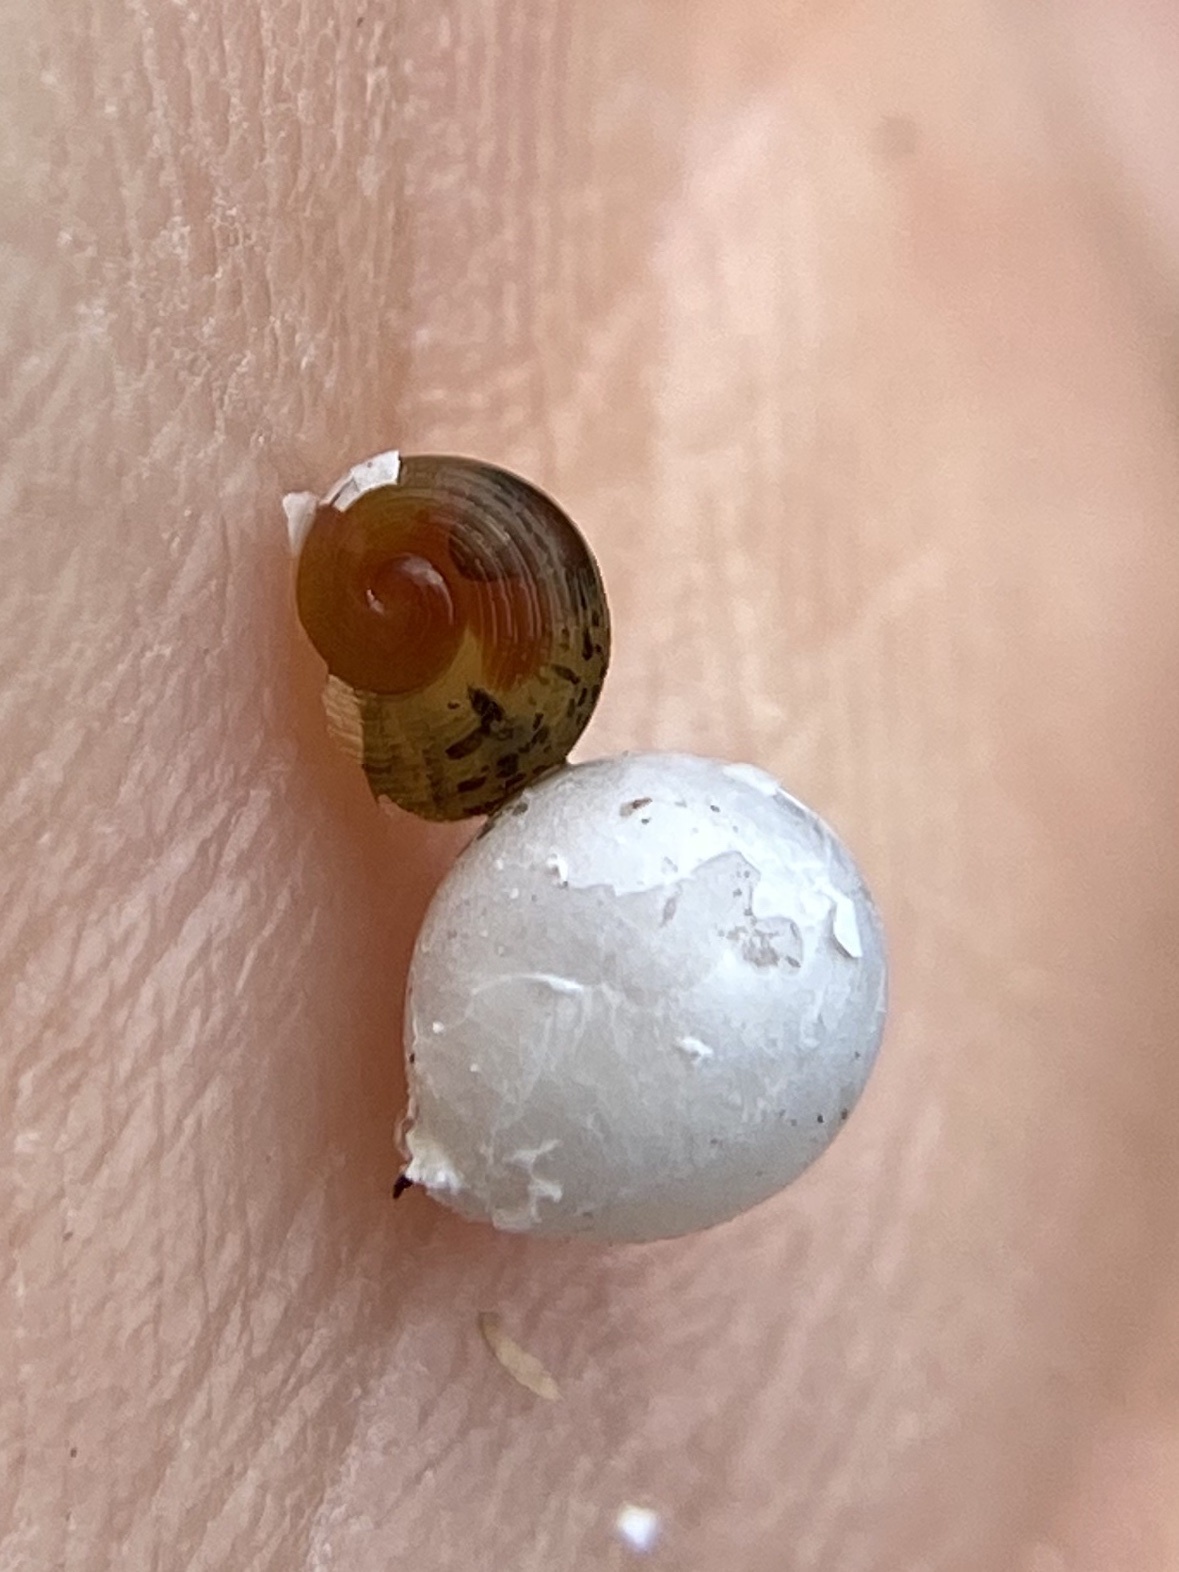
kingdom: Animalia
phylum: Mollusca
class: Gastropoda
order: Architaenioglossa
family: Ampullariidae
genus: Pomacea
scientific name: Pomacea paludosa
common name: Florida applesnail
